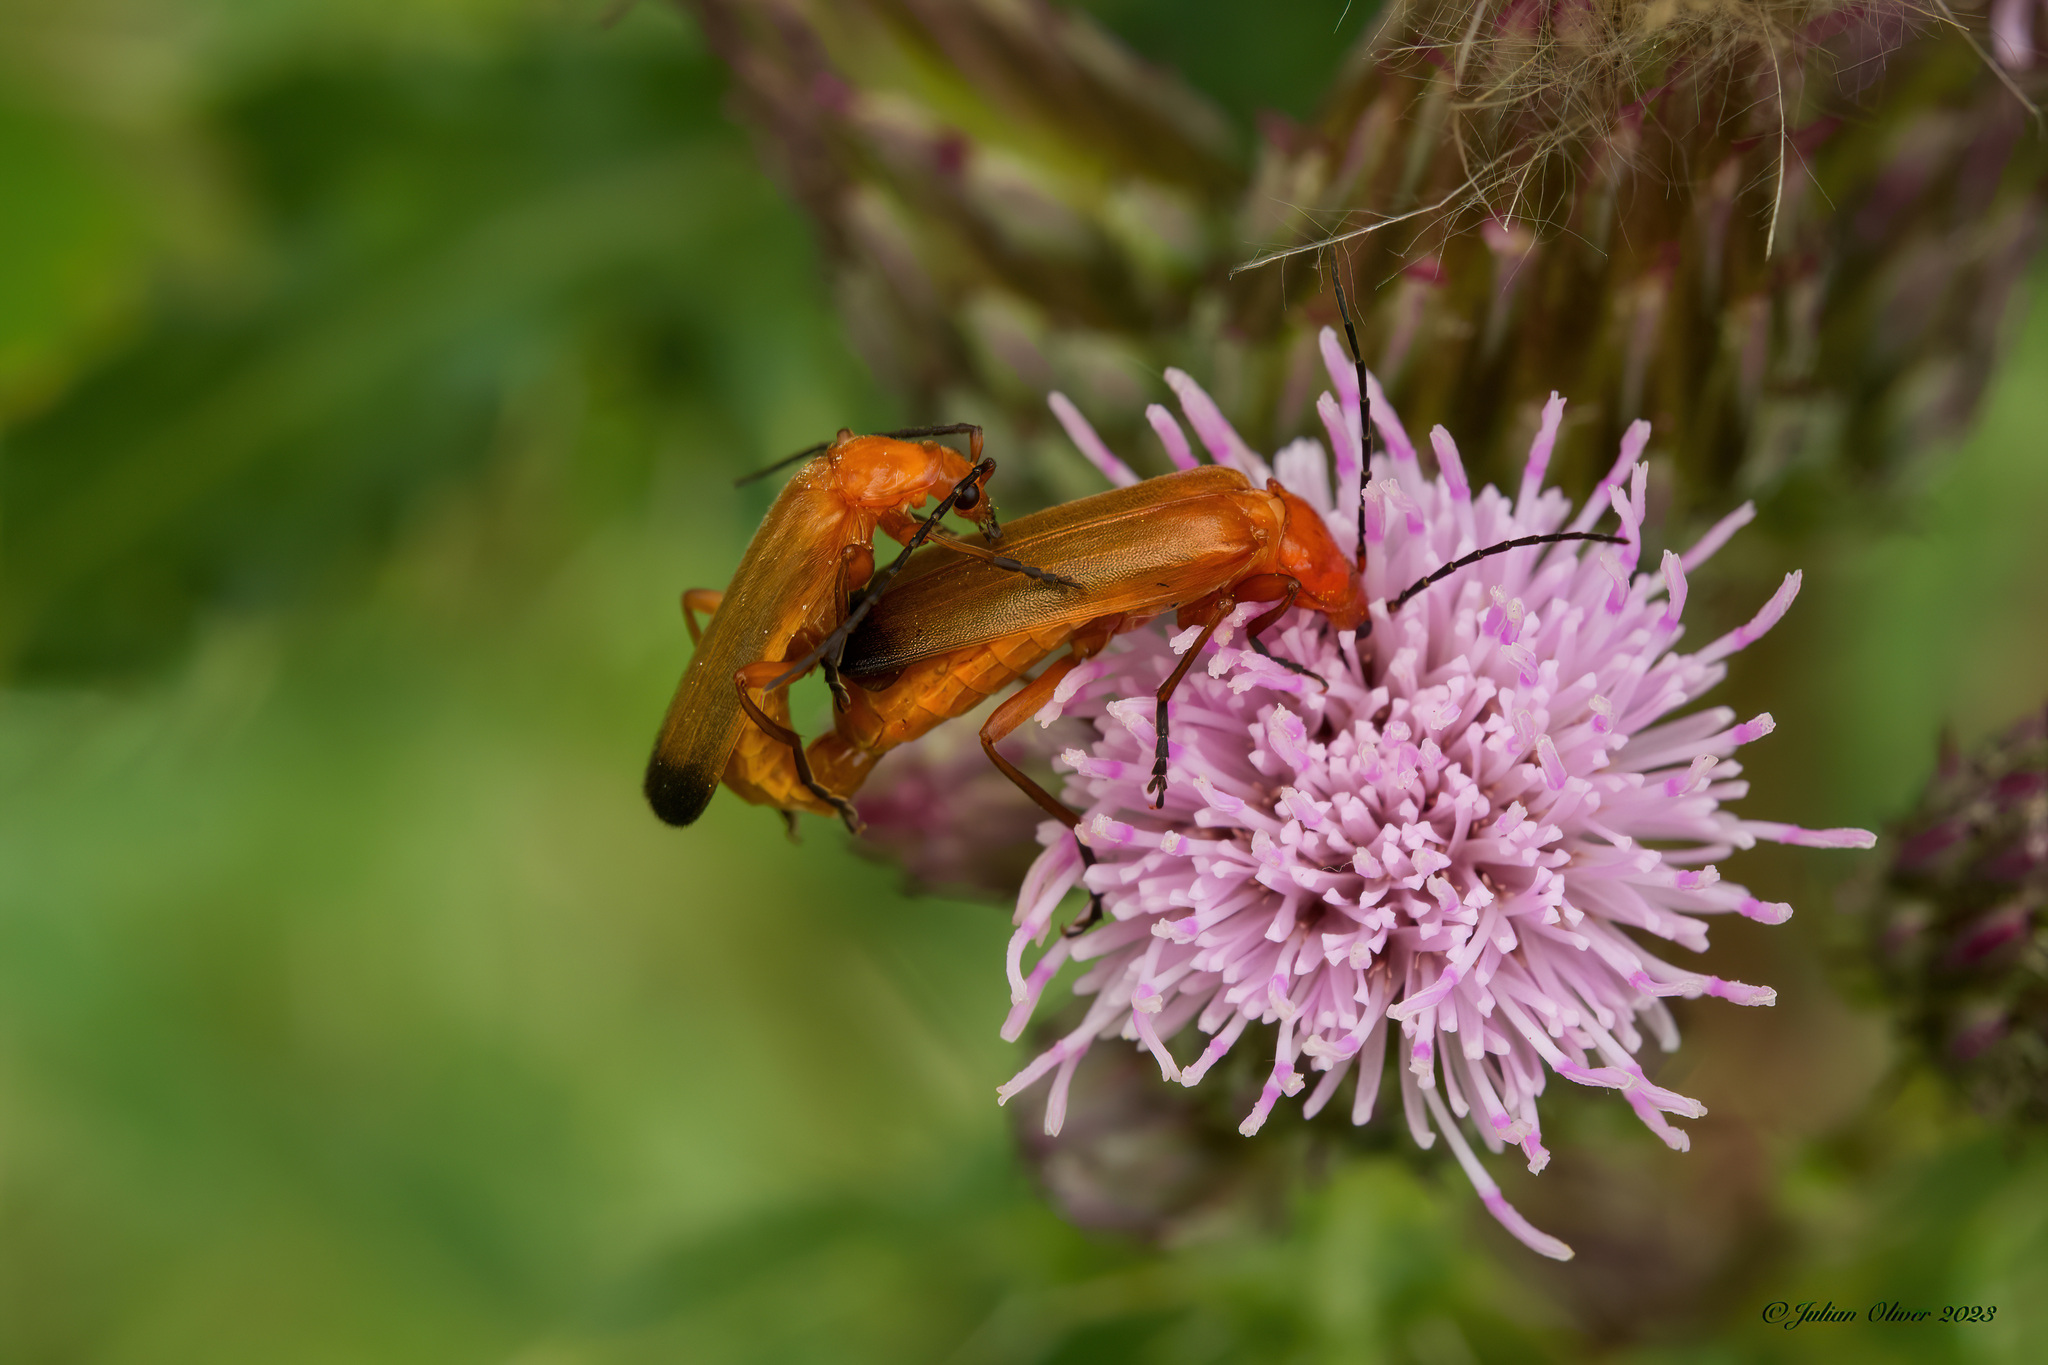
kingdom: Animalia
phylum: Arthropoda
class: Insecta
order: Coleoptera
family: Cantharidae
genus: Rhagonycha
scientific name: Rhagonycha fulva
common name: Common red soldier beetle
